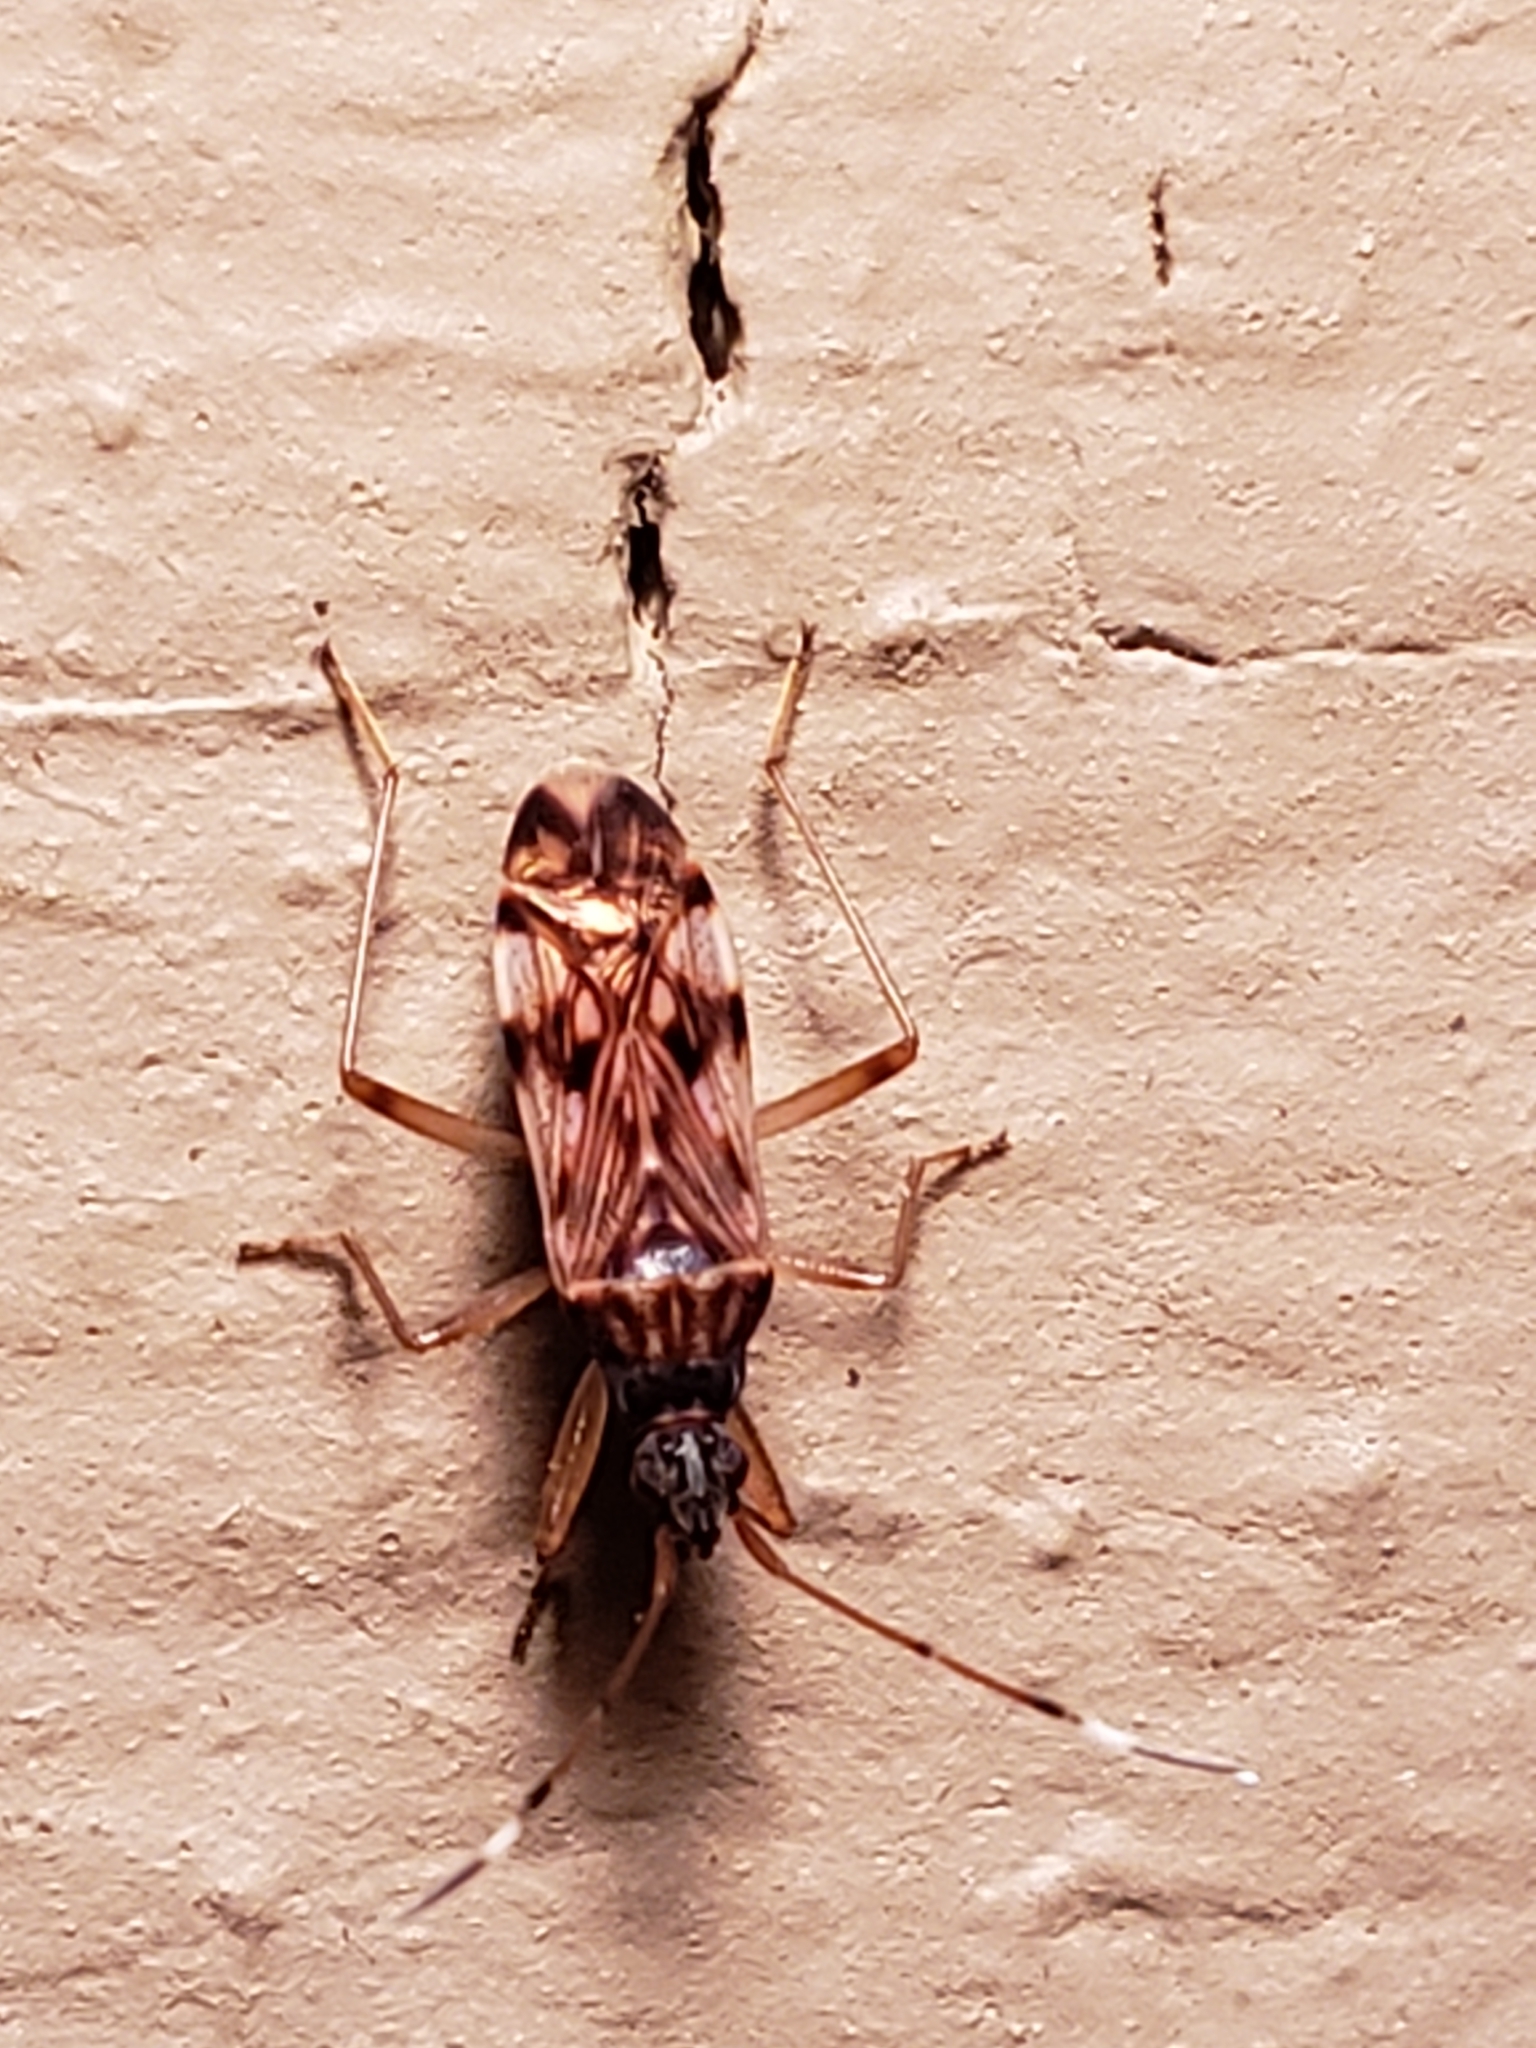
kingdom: Animalia
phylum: Arthropoda
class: Insecta
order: Hemiptera
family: Rhyparochromidae
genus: Ozophora
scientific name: Ozophora picturata
